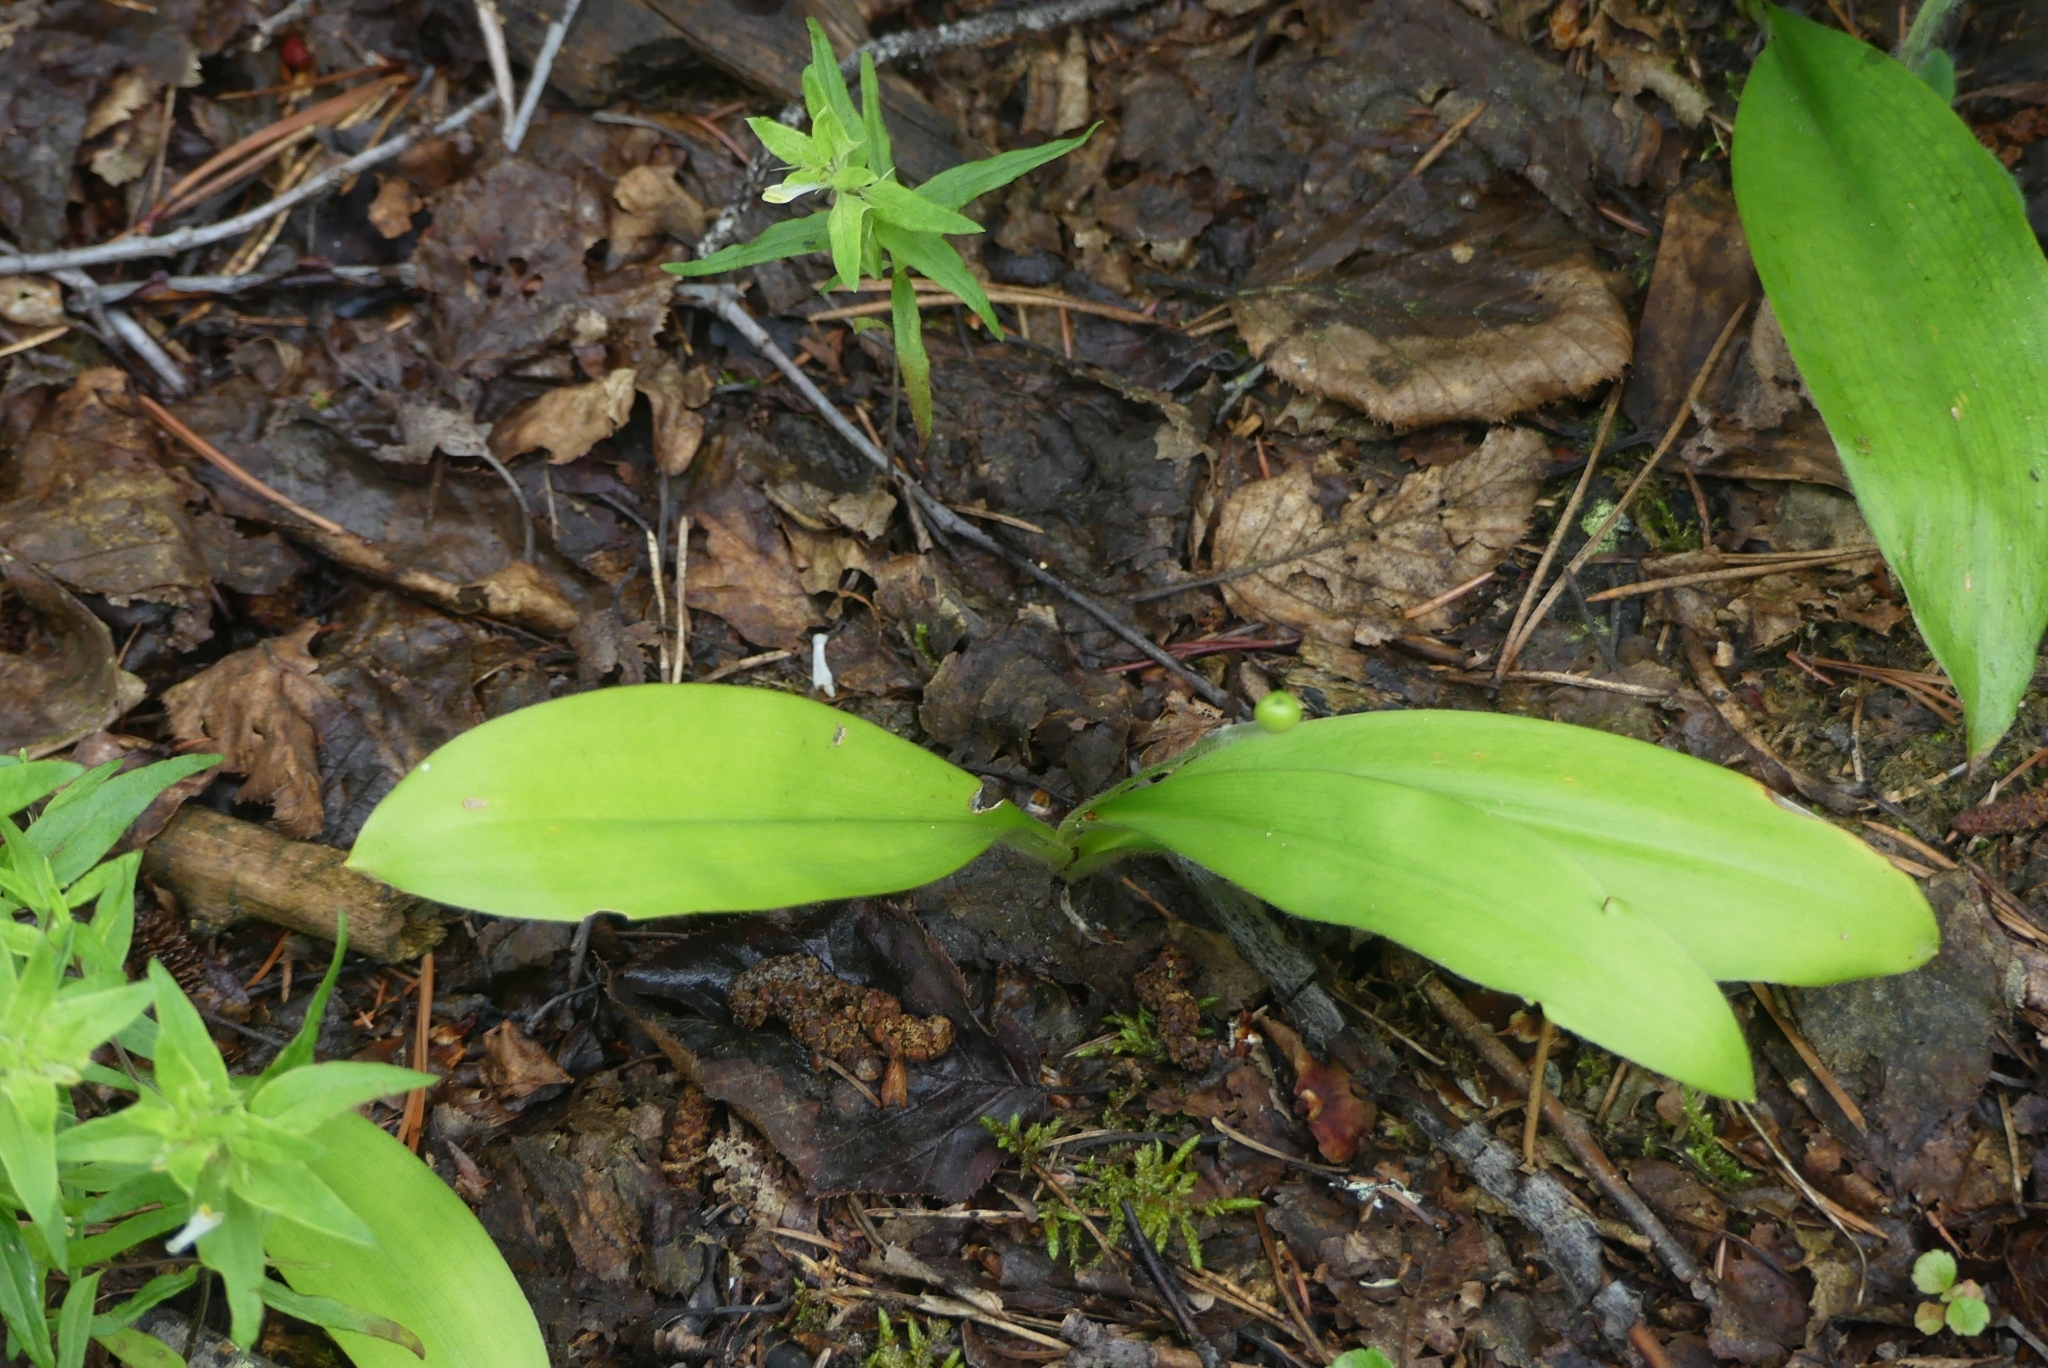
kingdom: Plantae
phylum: Tracheophyta
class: Liliopsida
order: Liliales
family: Liliaceae
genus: Clintonia
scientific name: Clintonia uniflora
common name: Queen's cup
